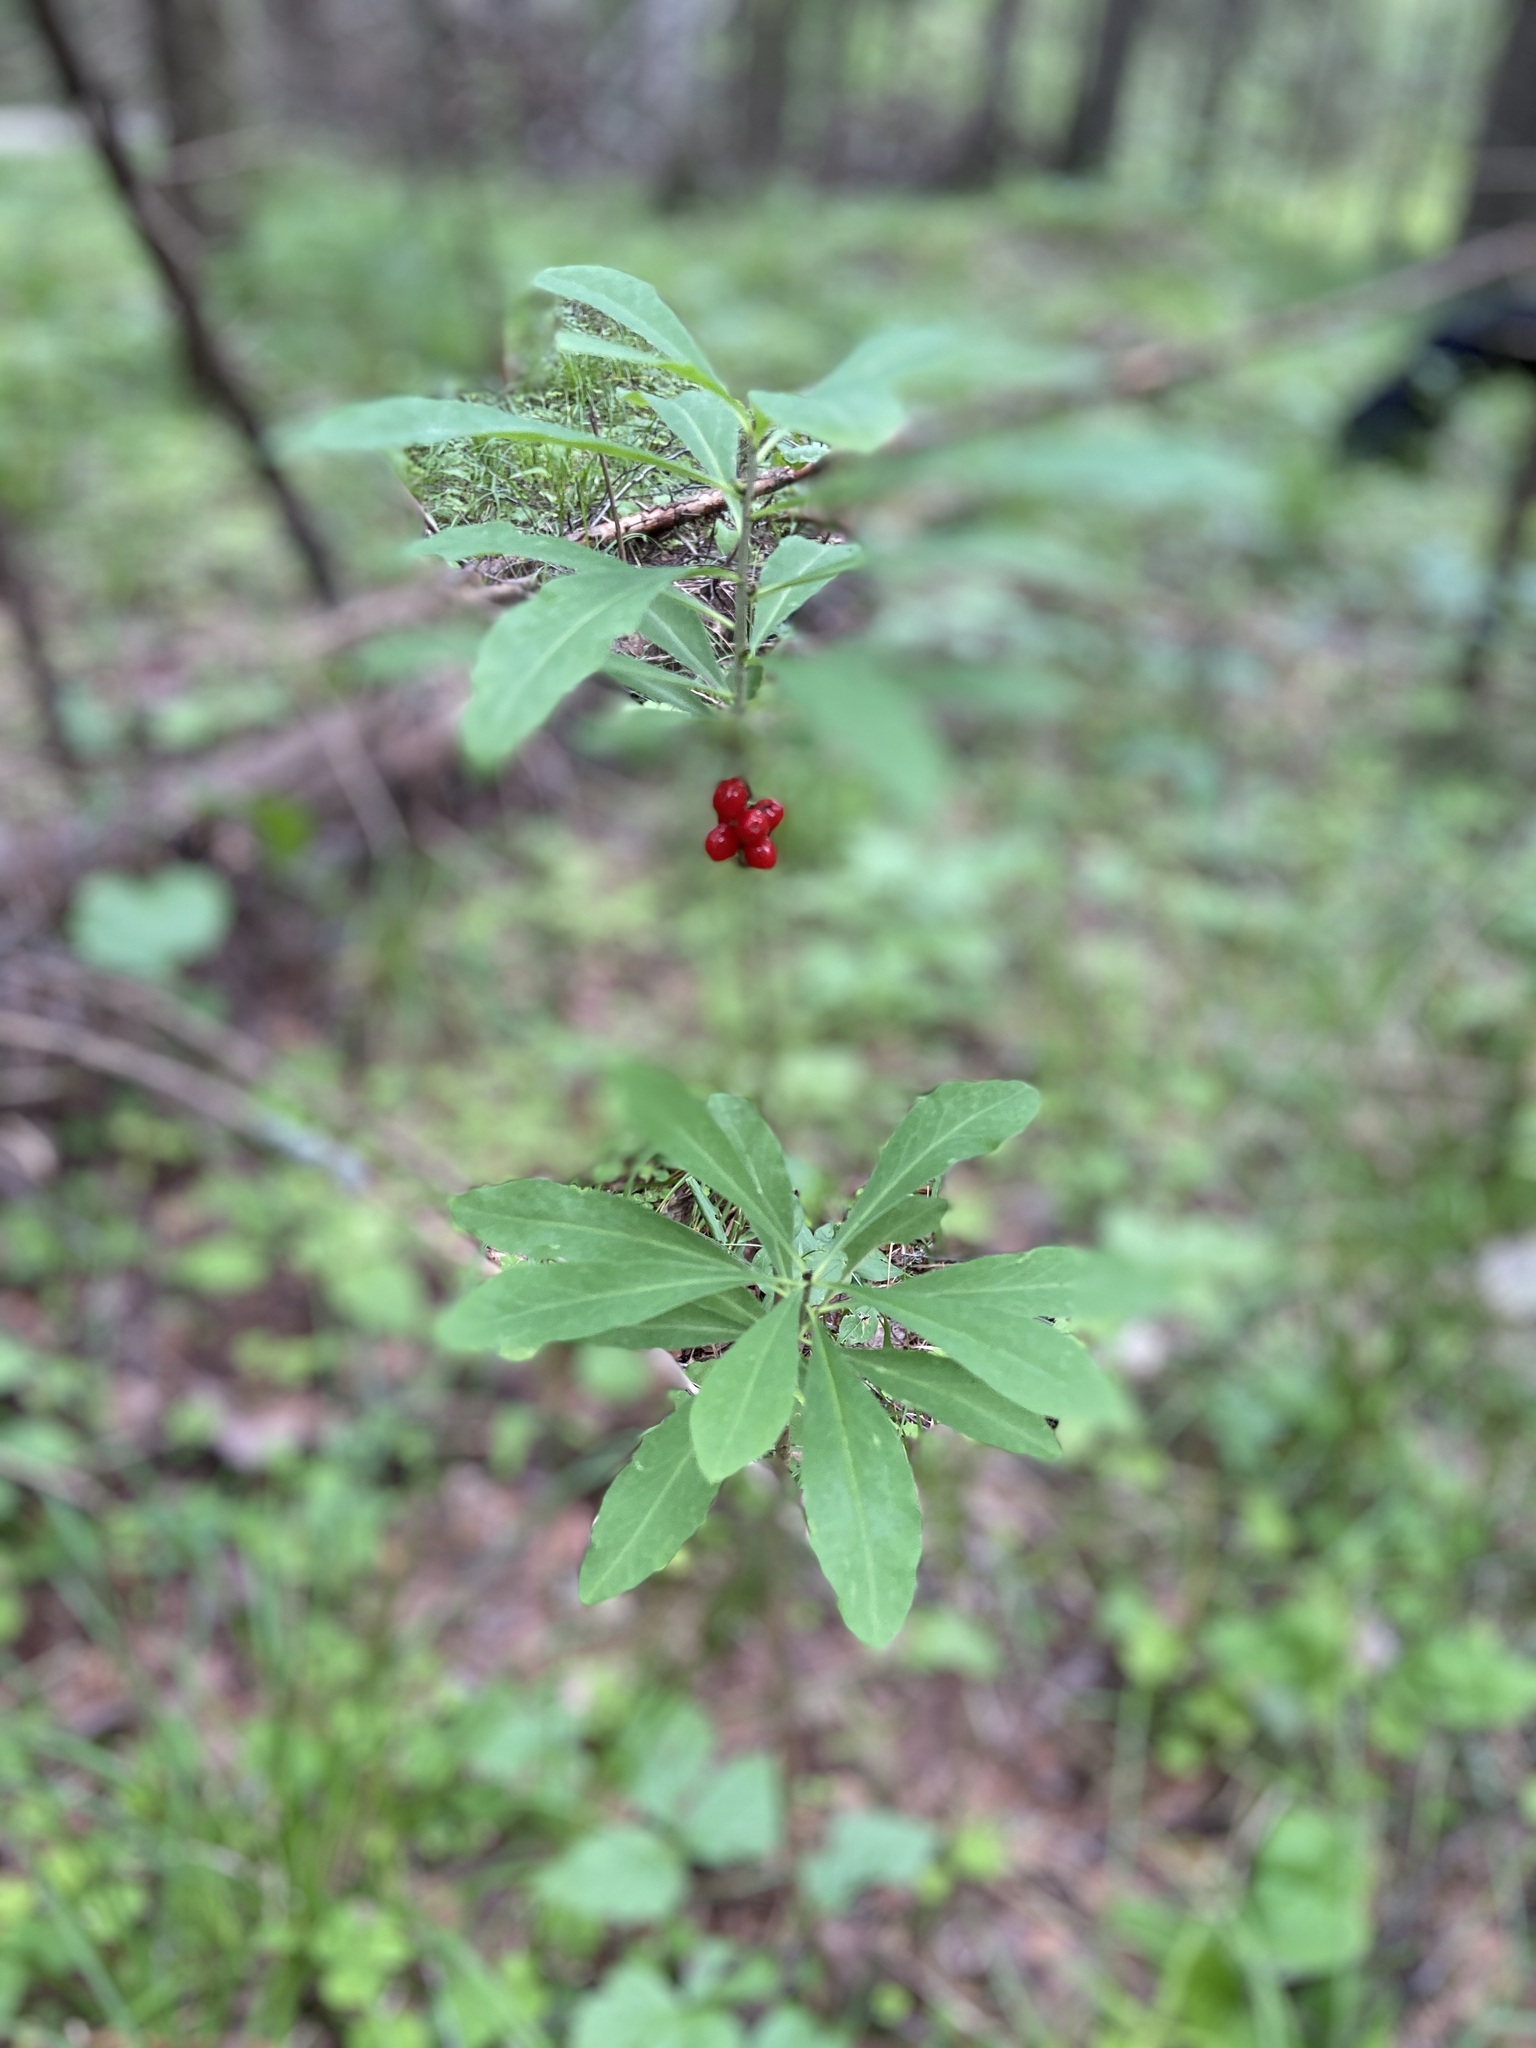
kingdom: Plantae
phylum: Tracheophyta
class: Magnoliopsida
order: Malvales
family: Thymelaeaceae
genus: Daphne
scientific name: Daphne mezereum
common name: Mezereon
